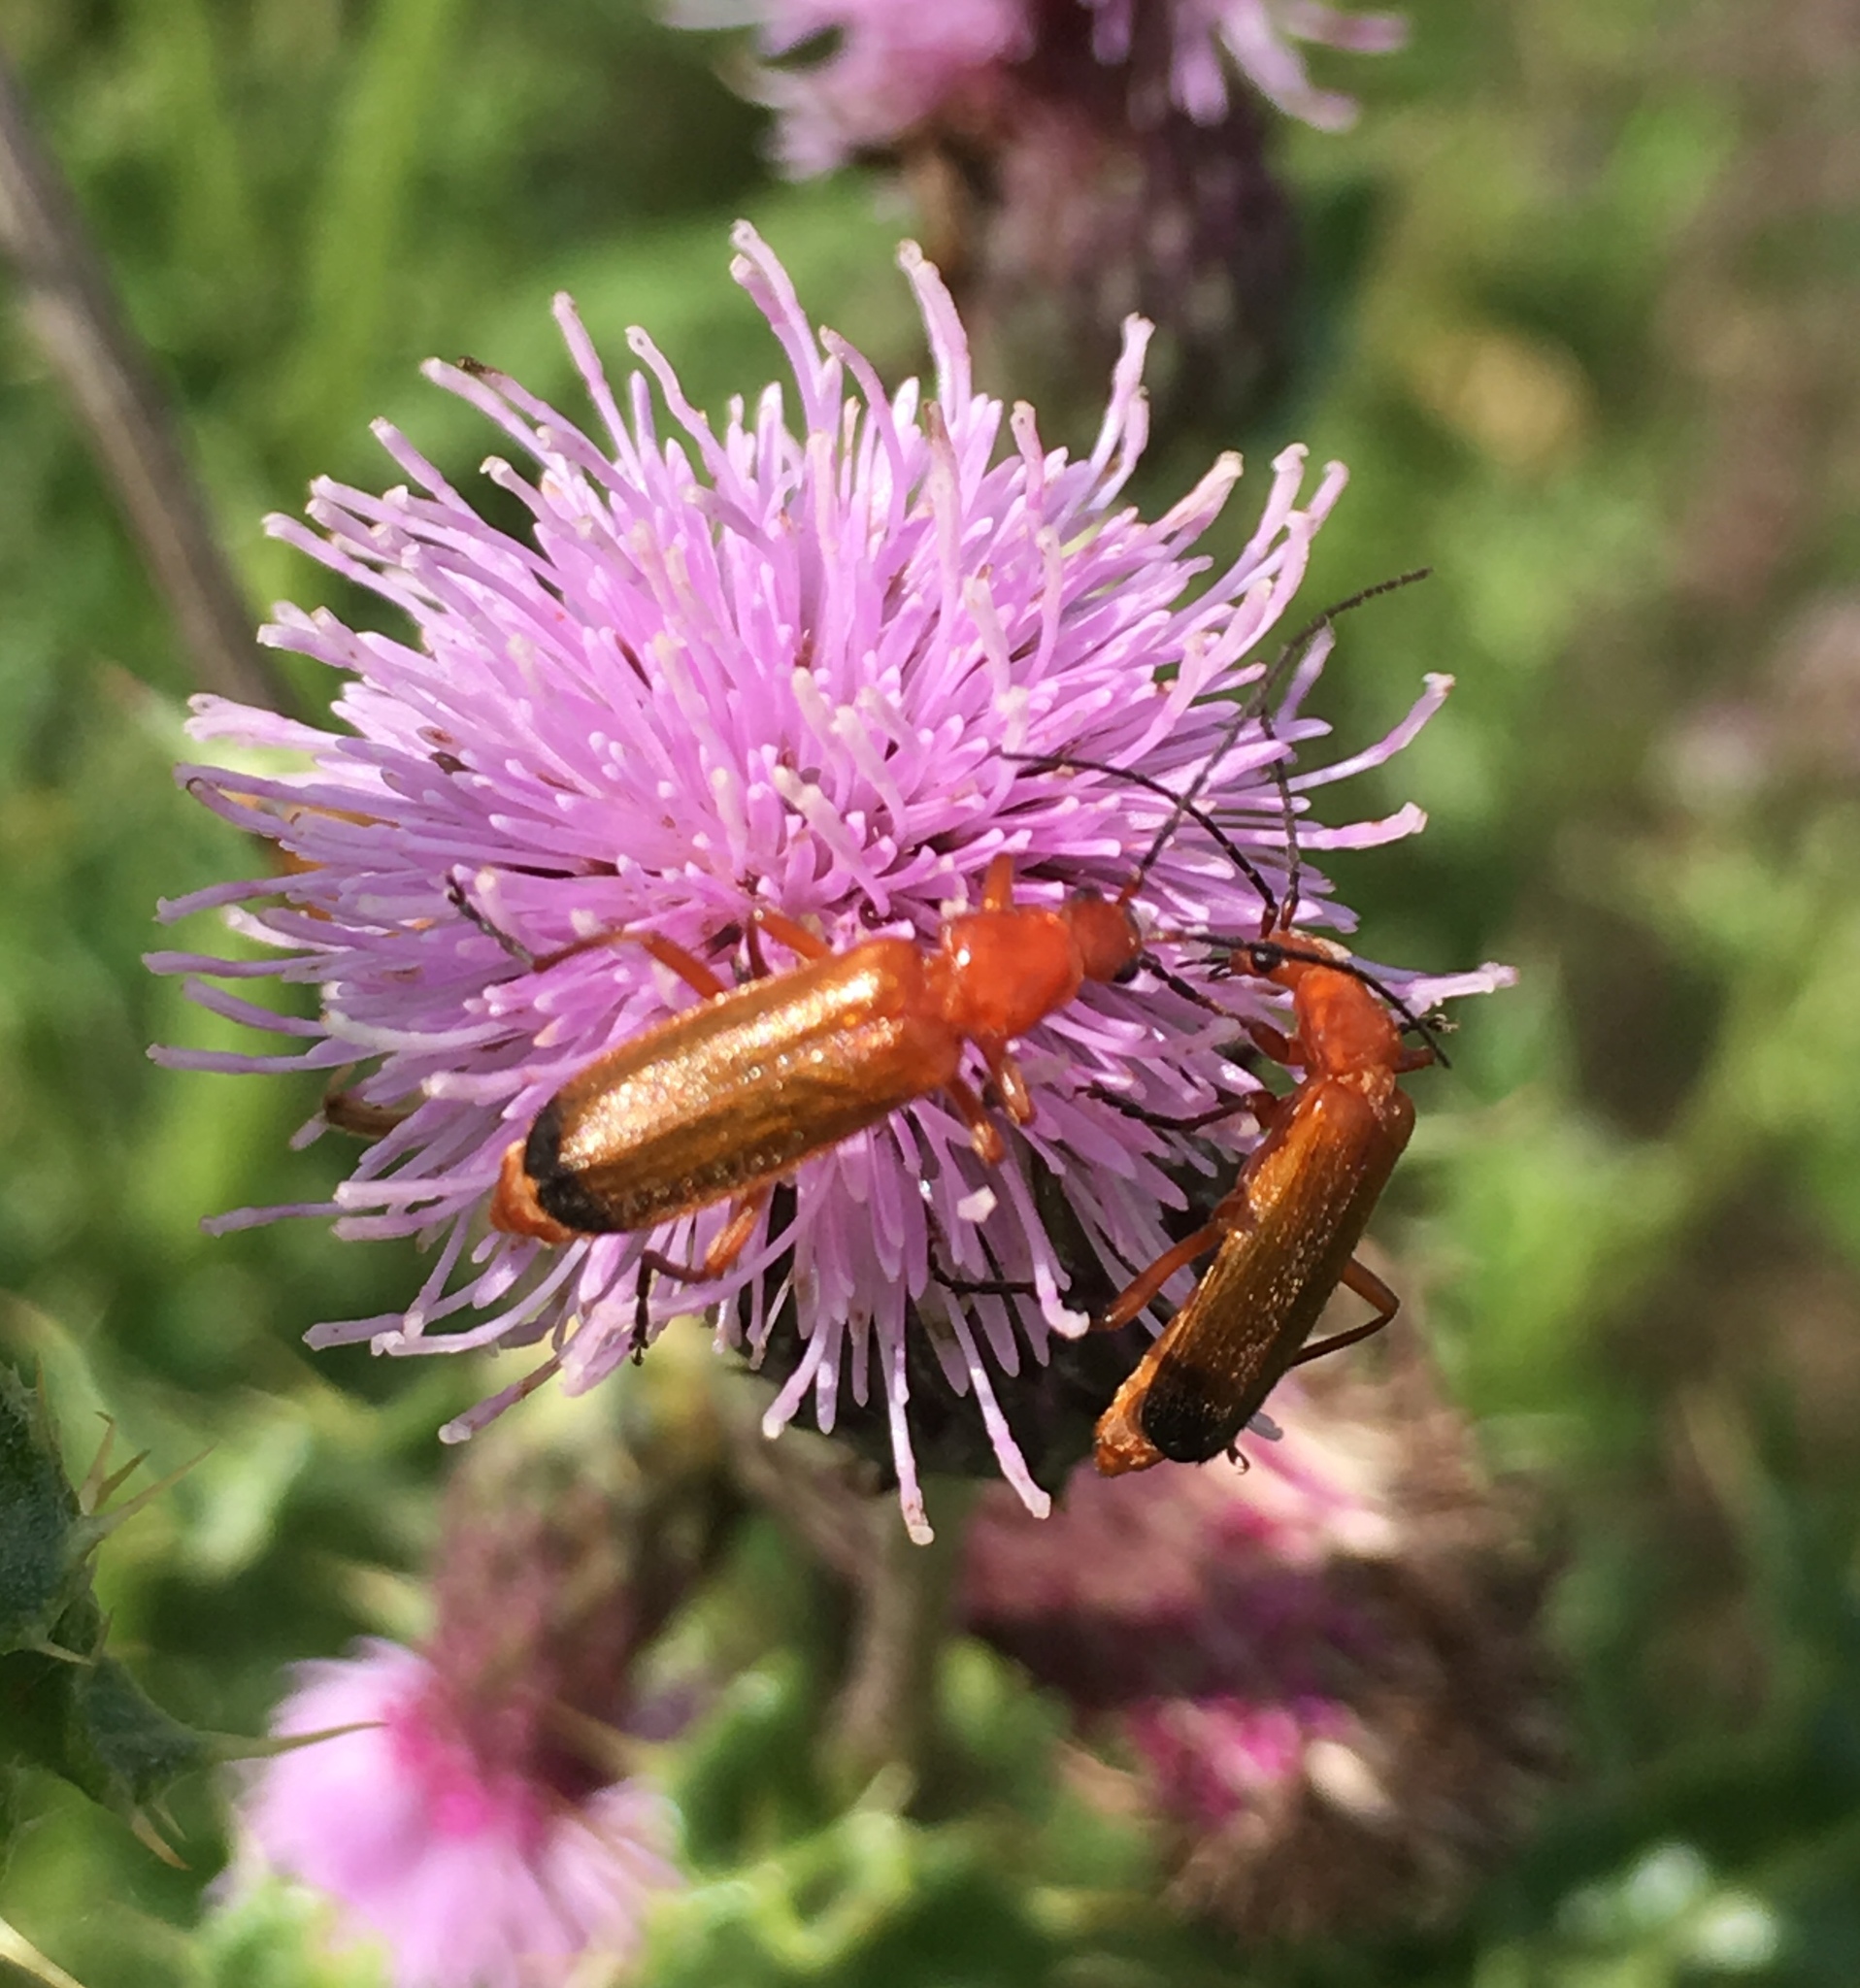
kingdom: Animalia
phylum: Arthropoda
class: Insecta
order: Coleoptera
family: Cantharidae
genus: Rhagonycha
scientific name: Rhagonycha fulva
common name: Common red soldier beetle
